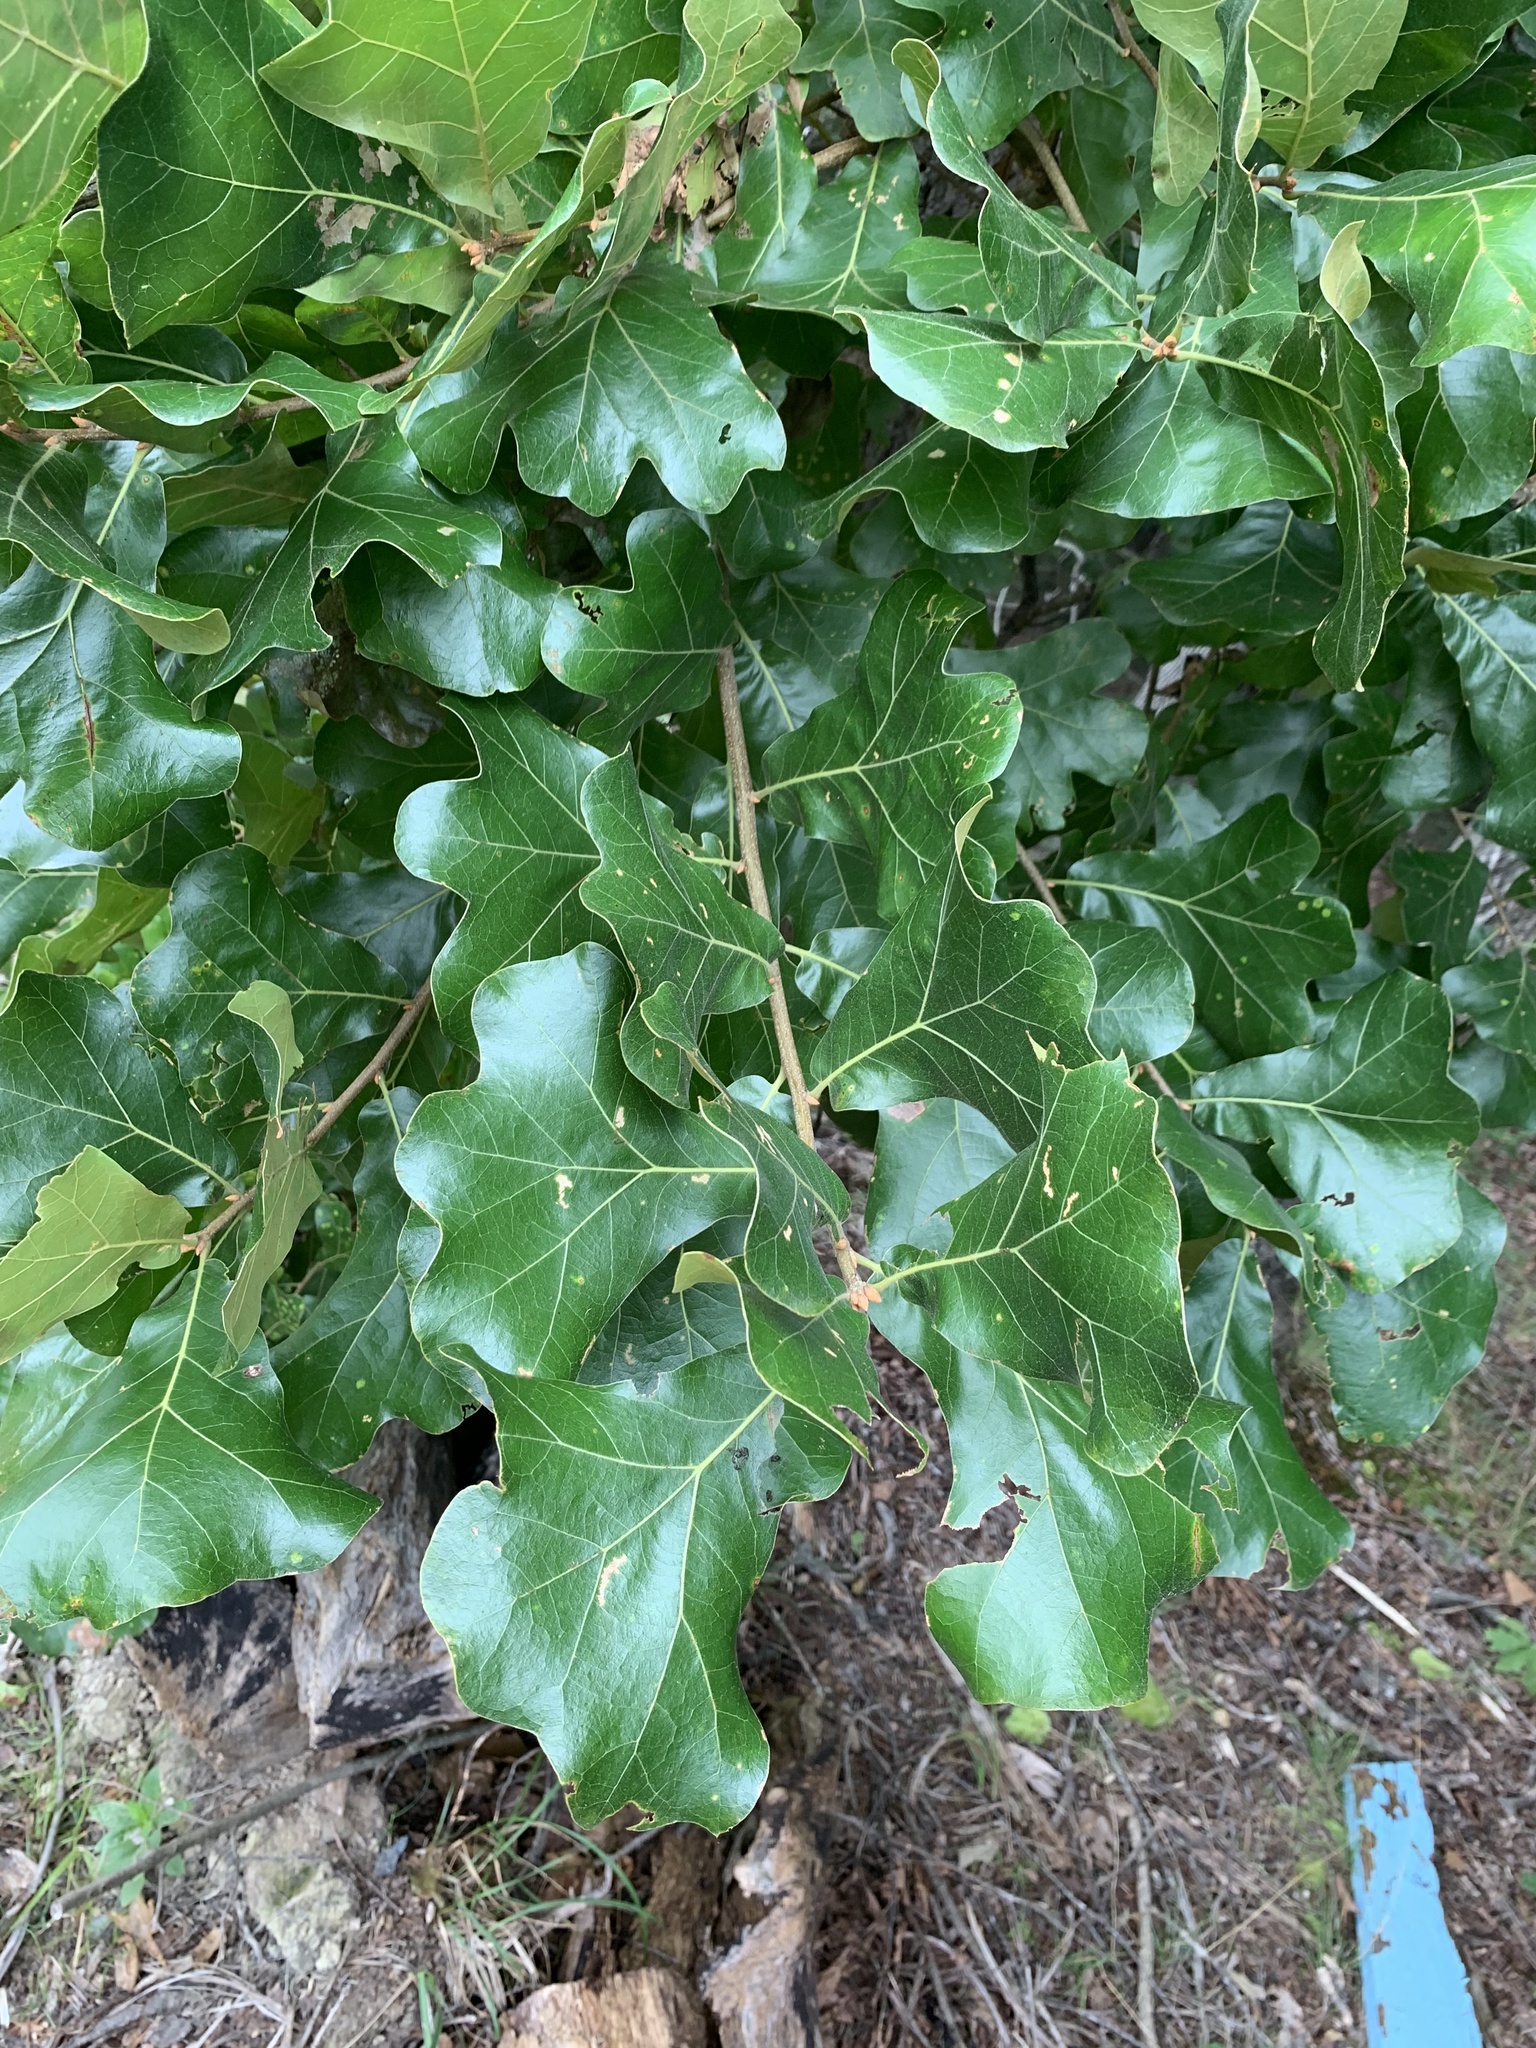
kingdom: Plantae
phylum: Tracheophyta
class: Magnoliopsida
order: Fagales
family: Fagaceae
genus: Quercus
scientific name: Quercus marilandica
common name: Blackjack oak
